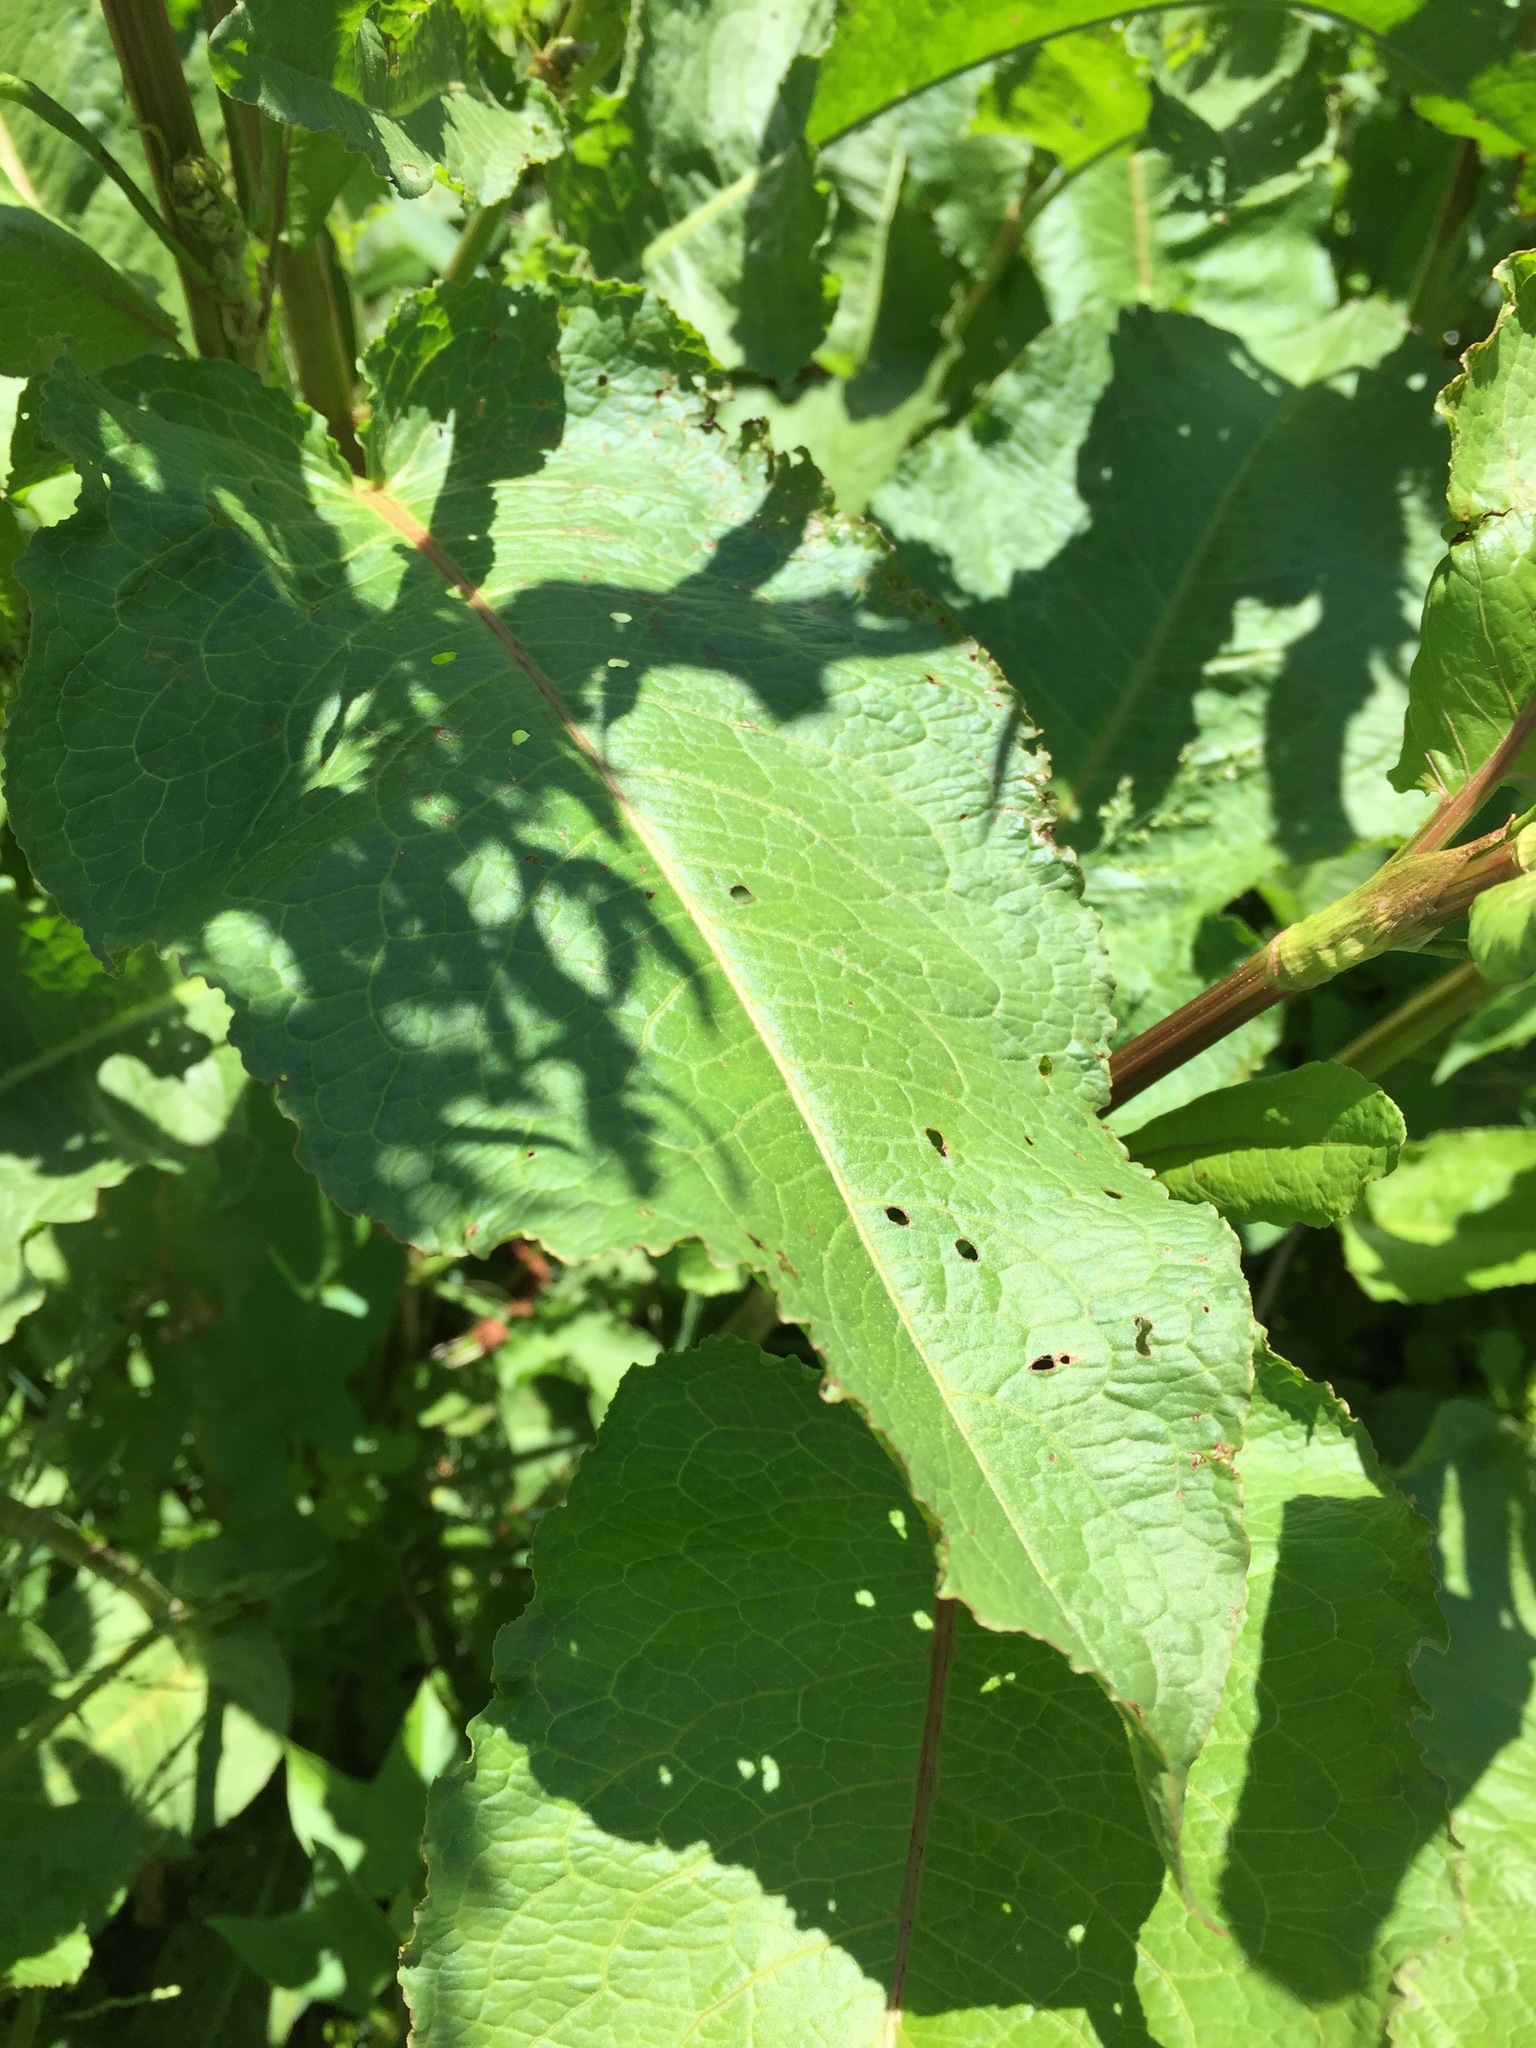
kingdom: Plantae
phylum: Tracheophyta
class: Magnoliopsida
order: Caryophyllales
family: Polygonaceae
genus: Rumex
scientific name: Rumex obtusifolius
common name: Bitter dock
